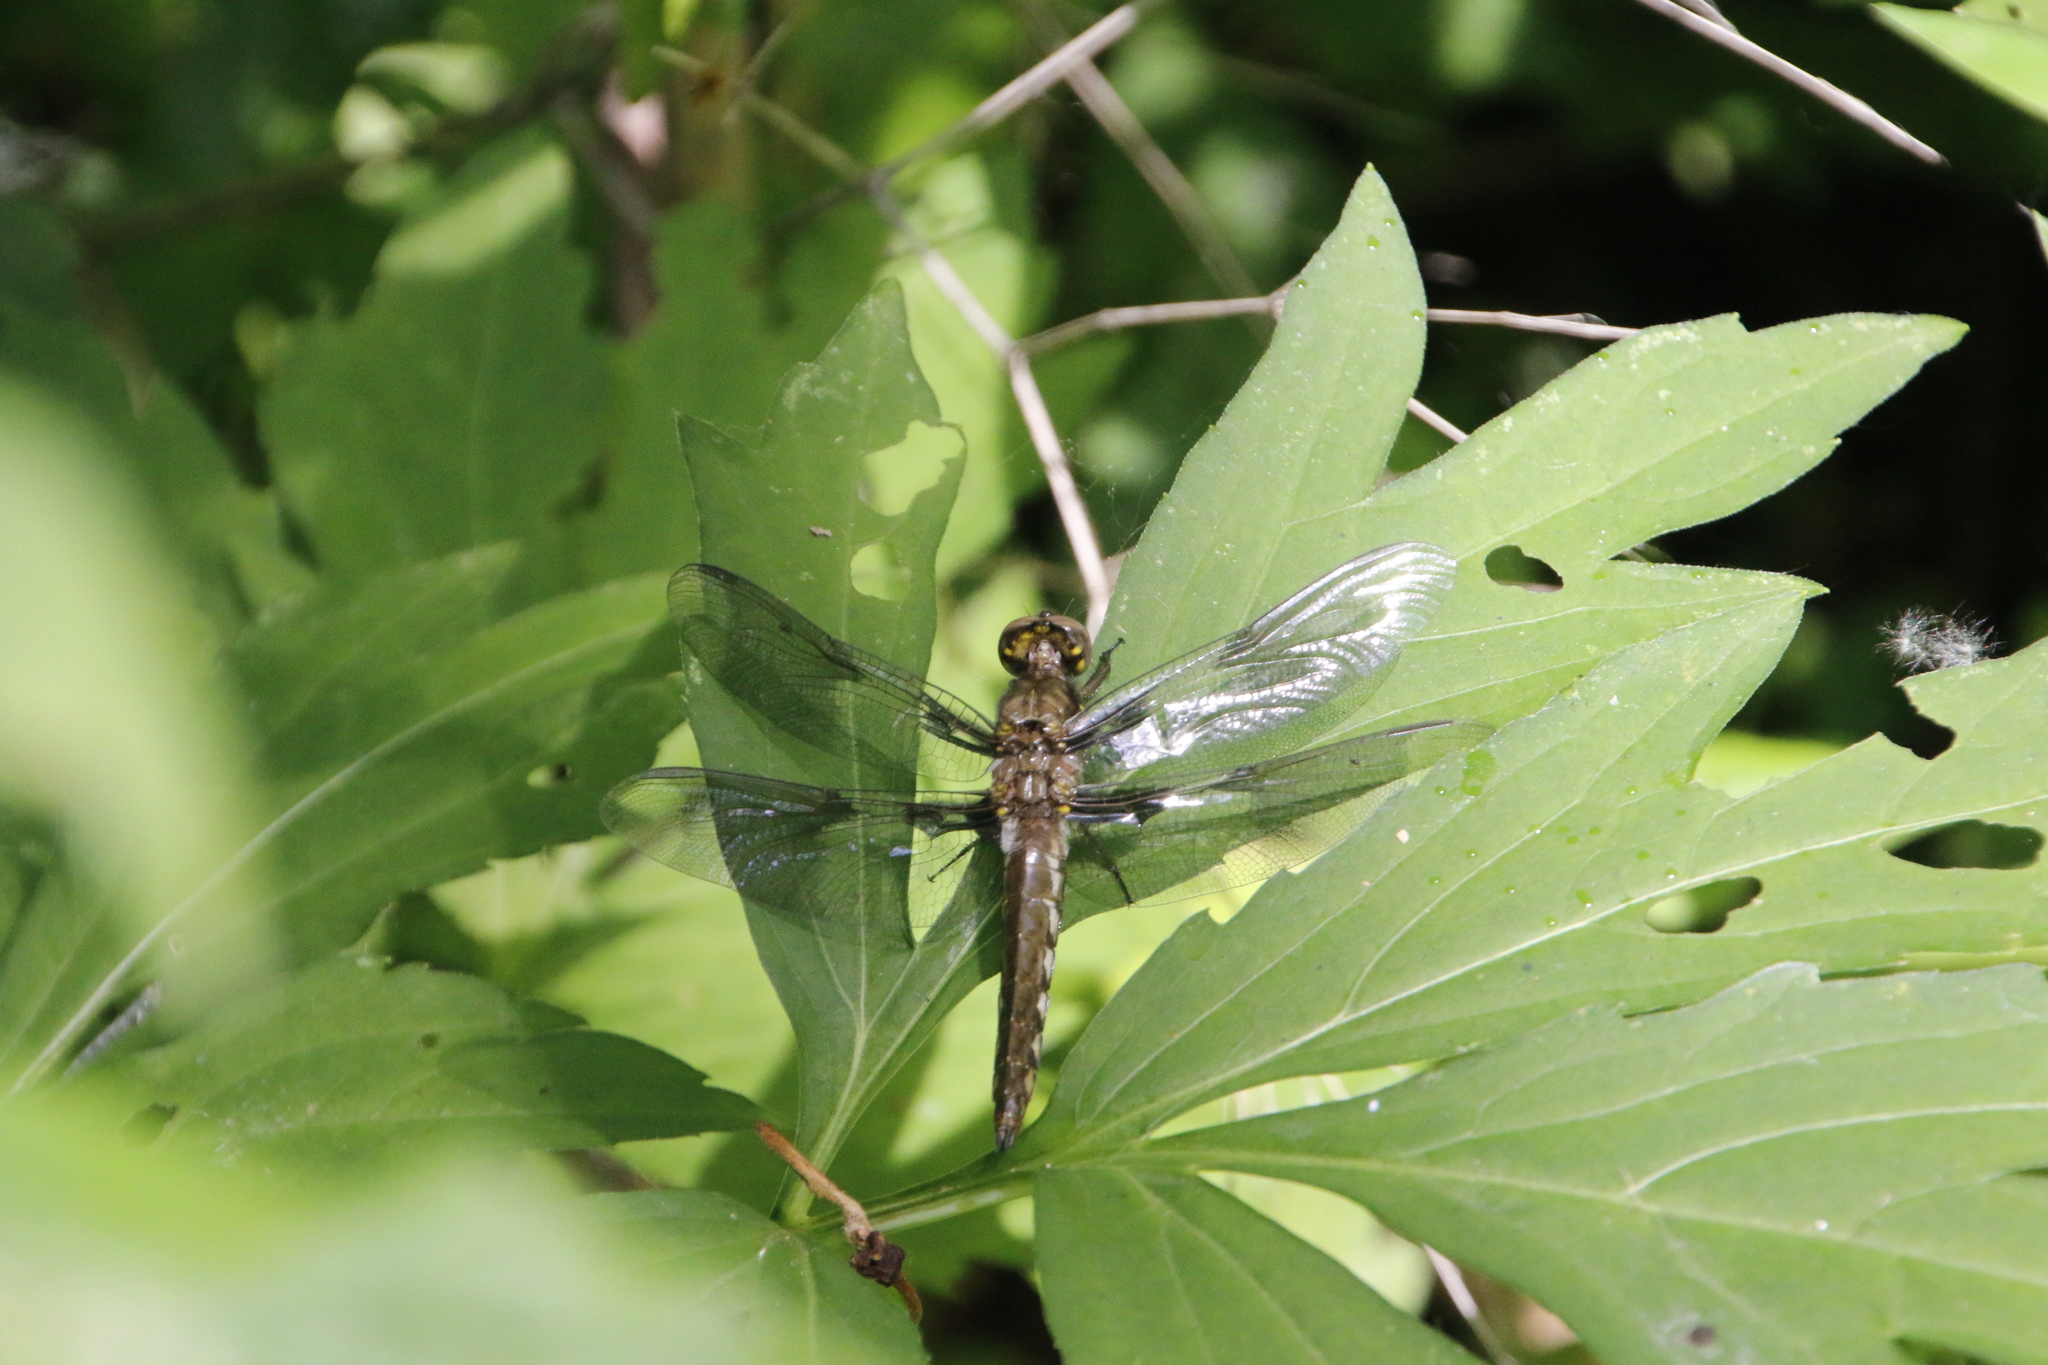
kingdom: Animalia
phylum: Arthropoda
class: Insecta
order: Odonata
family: Libellulidae
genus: Plathemis
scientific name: Plathemis lydia
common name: Common whitetail
